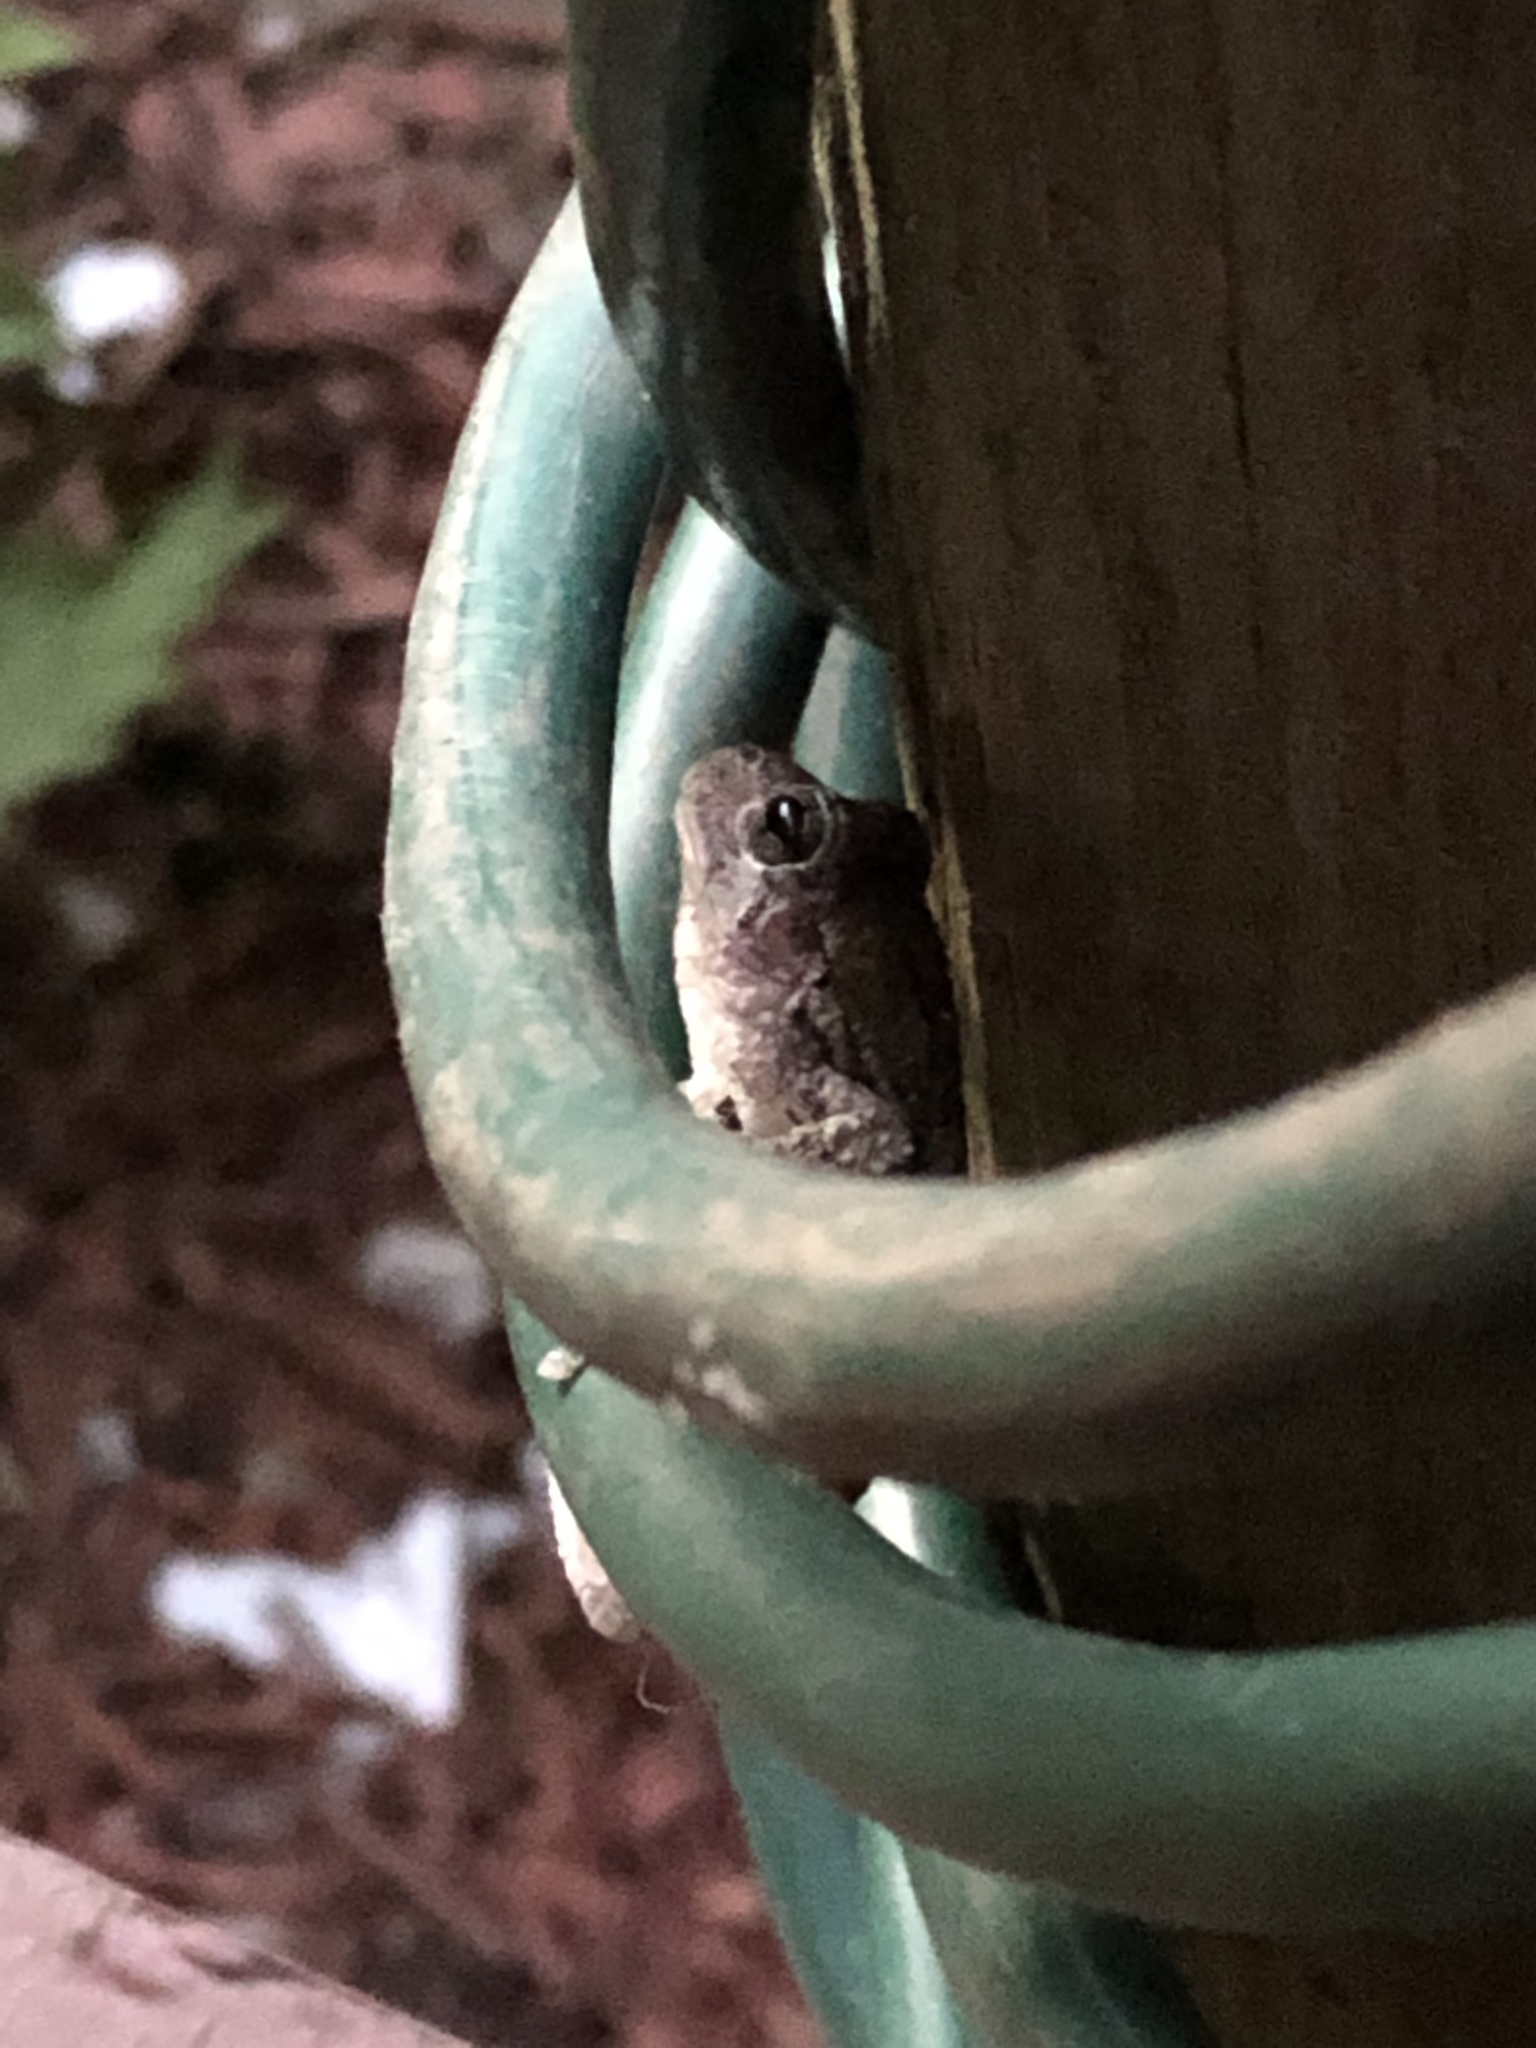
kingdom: Animalia
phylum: Chordata
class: Amphibia
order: Anura
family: Hylidae
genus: Dryophytes
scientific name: Dryophytes versicolor
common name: Gray treefrog
